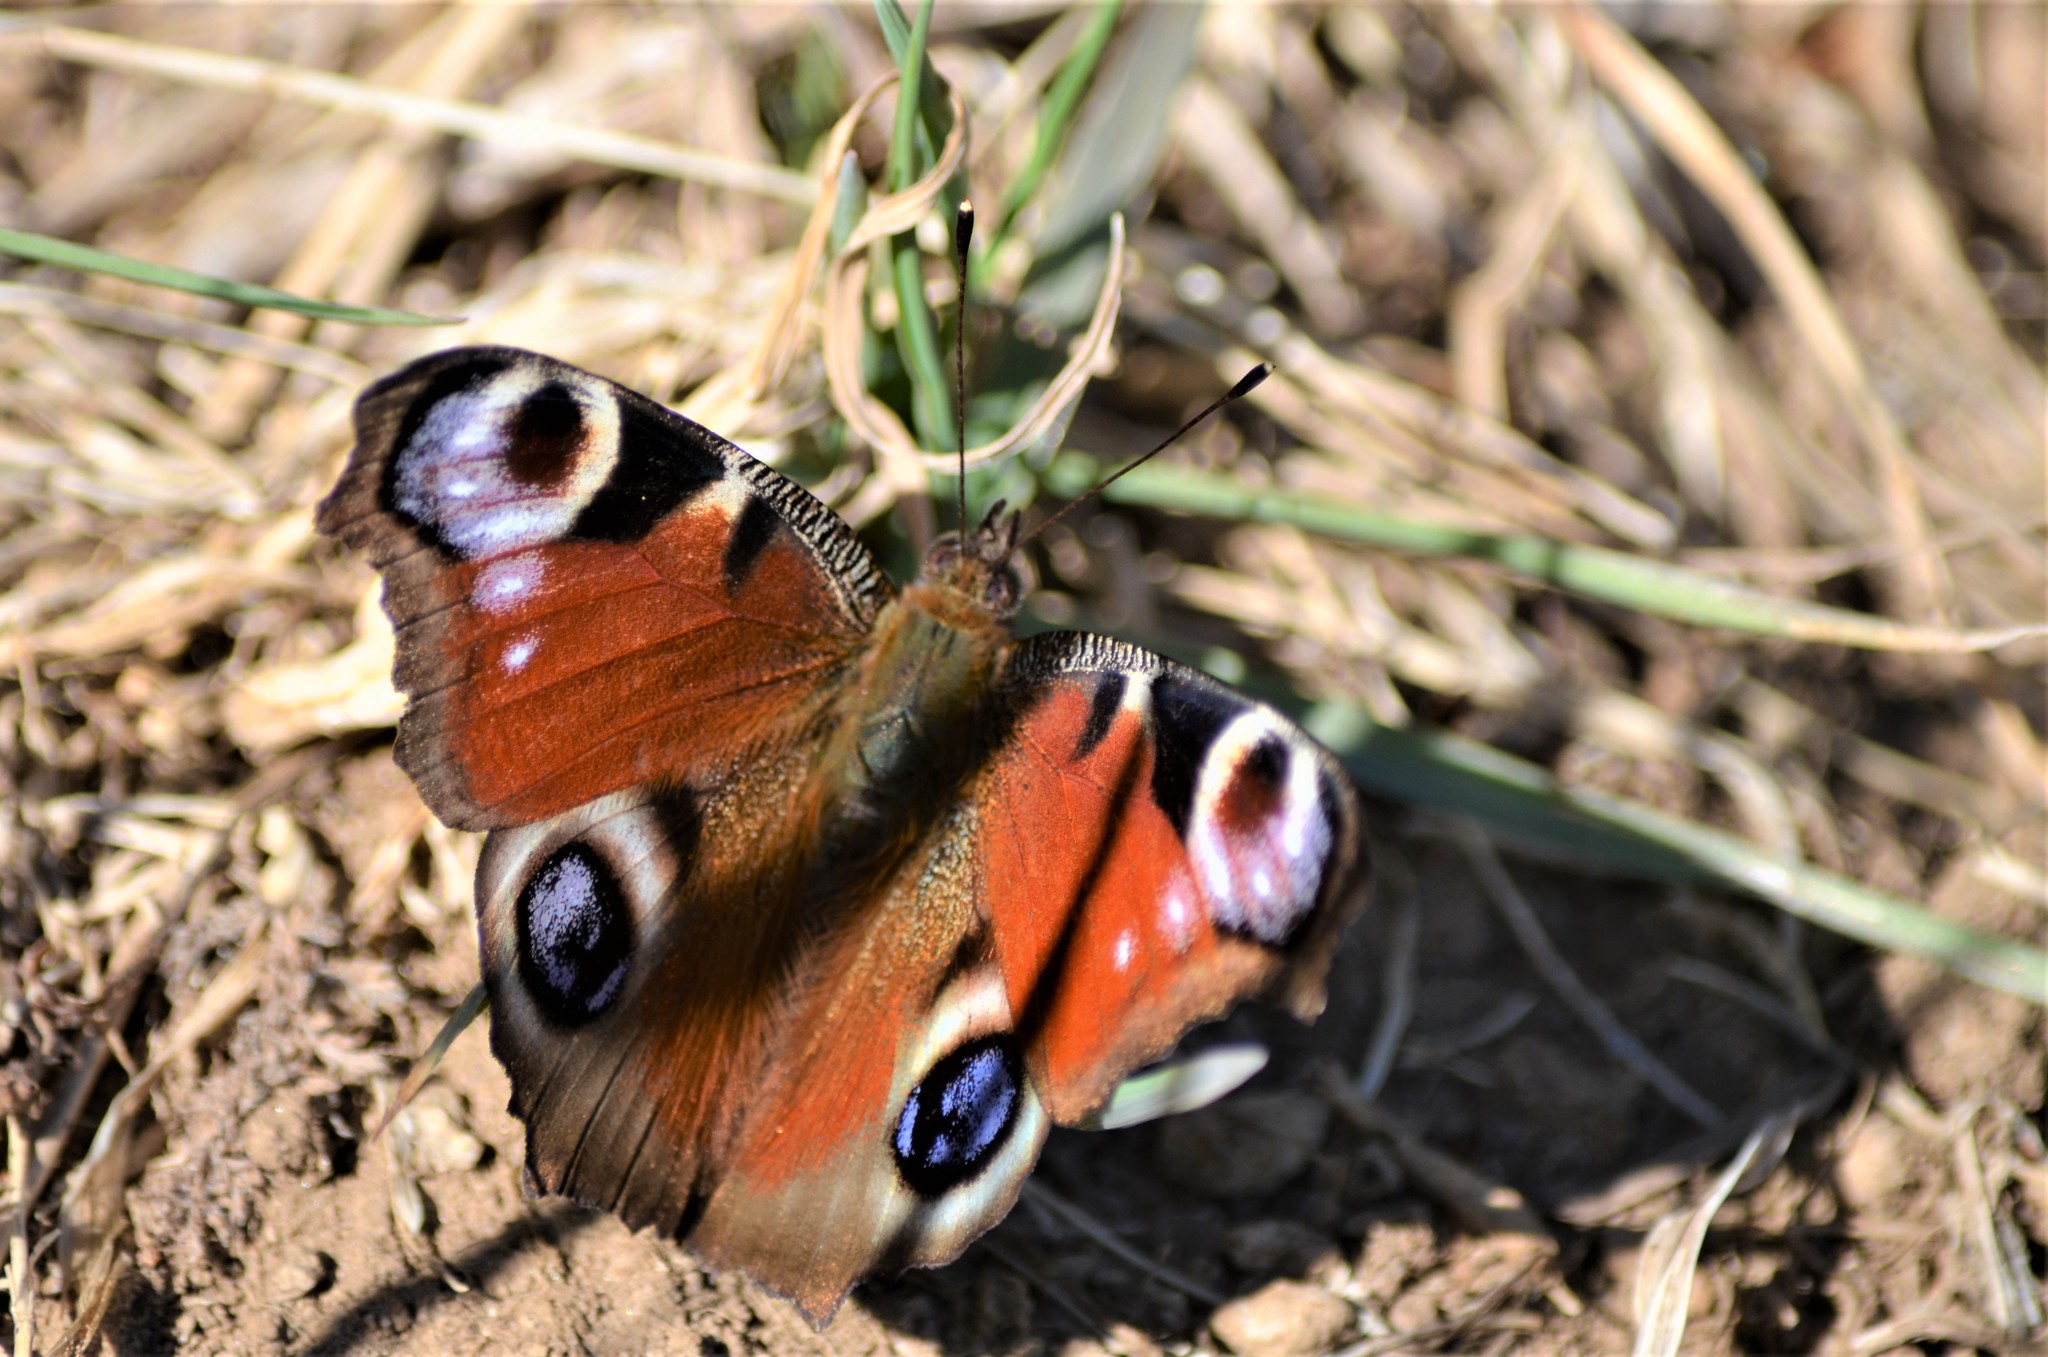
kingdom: Animalia
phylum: Arthropoda
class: Insecta
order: Lepidoptera
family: Nymphalidae
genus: Aglais
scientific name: Aglais io
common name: Peacock
